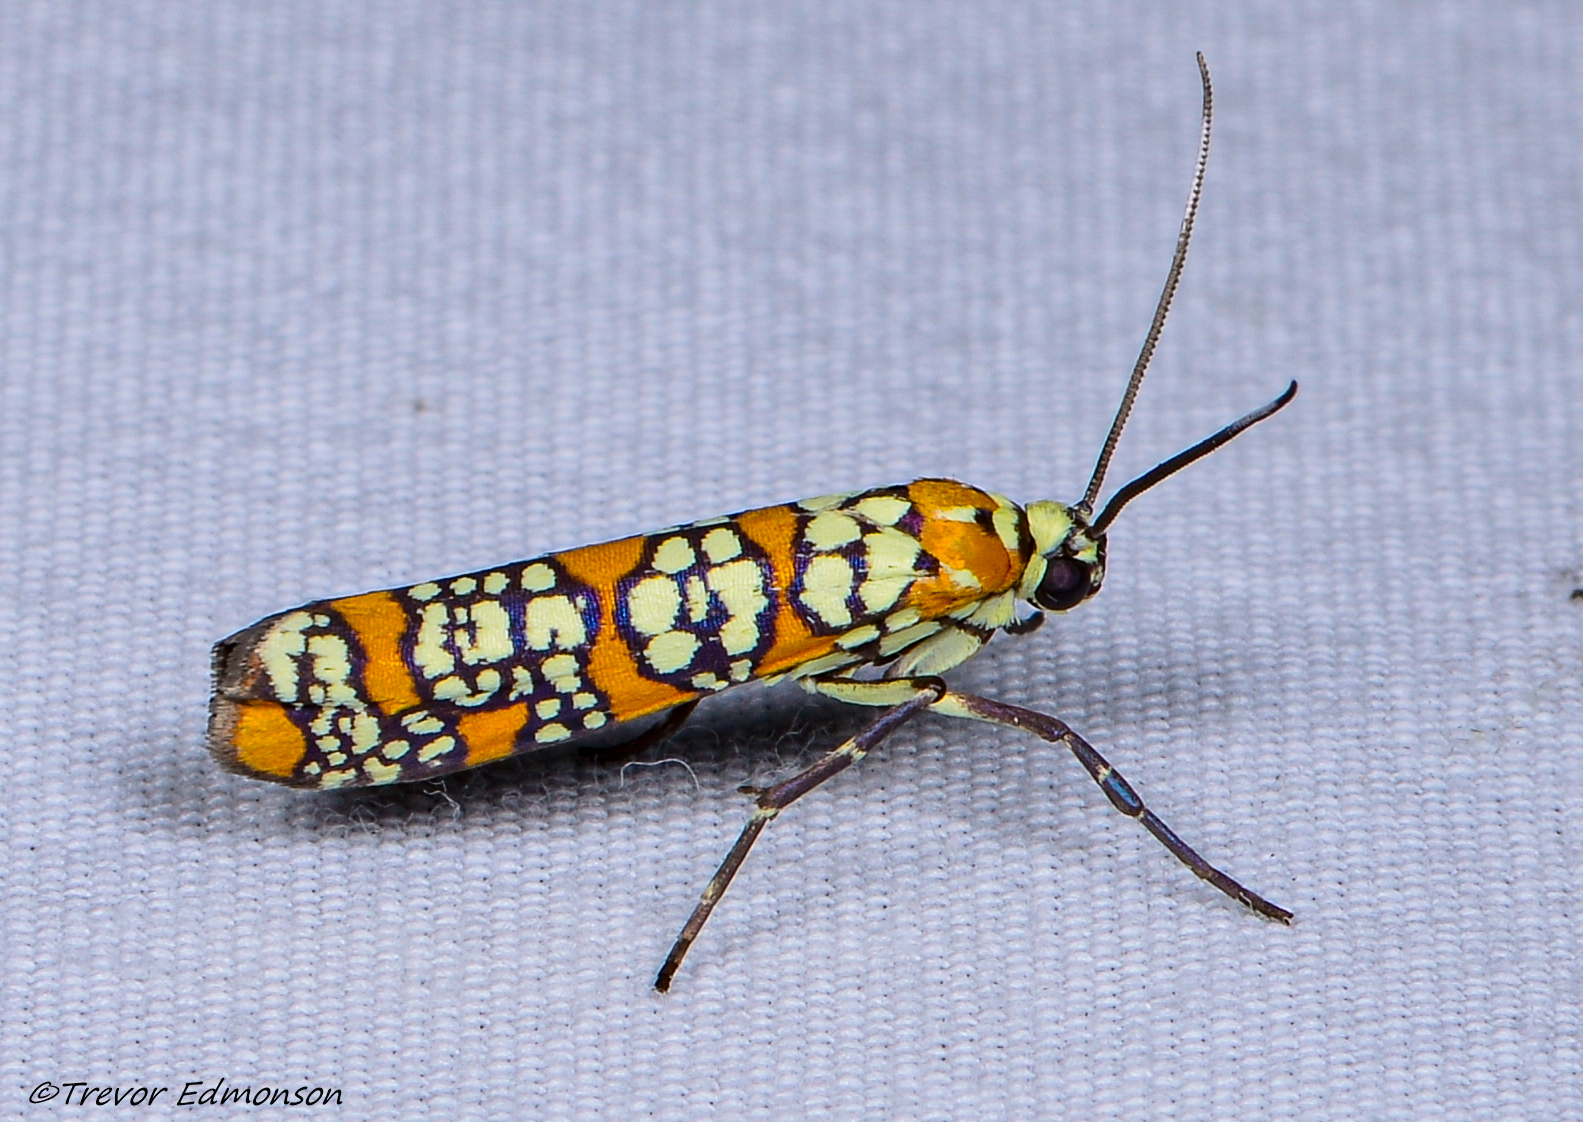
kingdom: Animalia
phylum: Arthropoda
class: Insecta
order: Lepidoptera
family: Attevidae
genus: Atteva
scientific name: Atteva punctella
